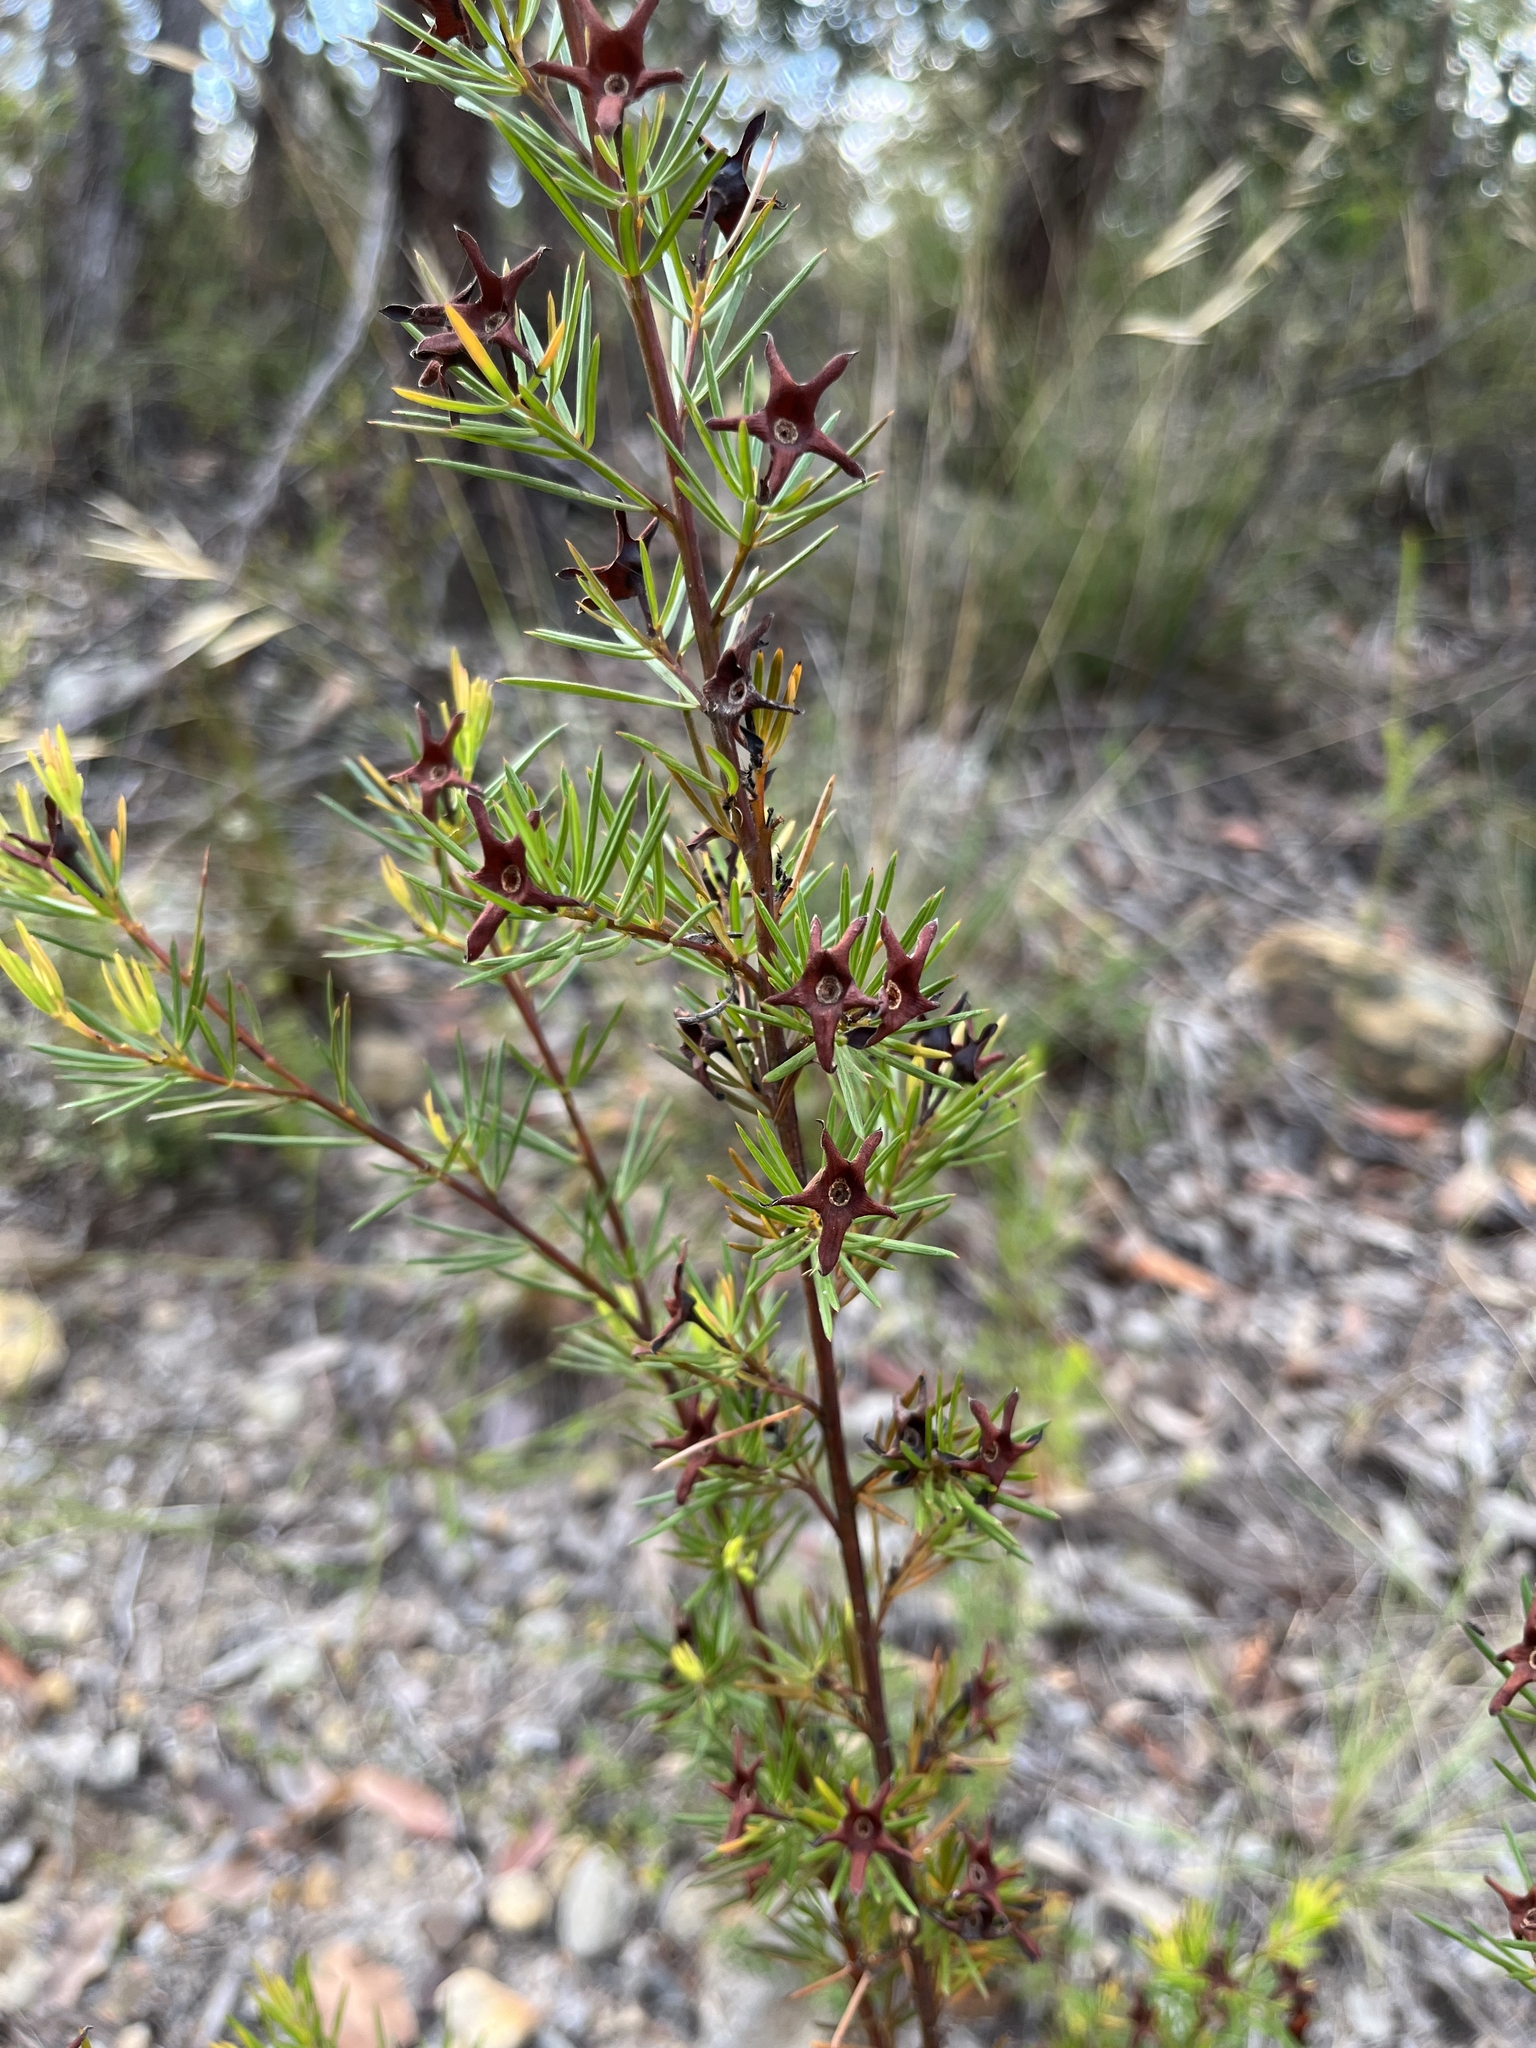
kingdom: Plantae
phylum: Tracheophyta
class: Magnoliopsida
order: Fabales
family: Fabaceae
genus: Gompholobium
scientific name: Gompholobium grandiflorum
